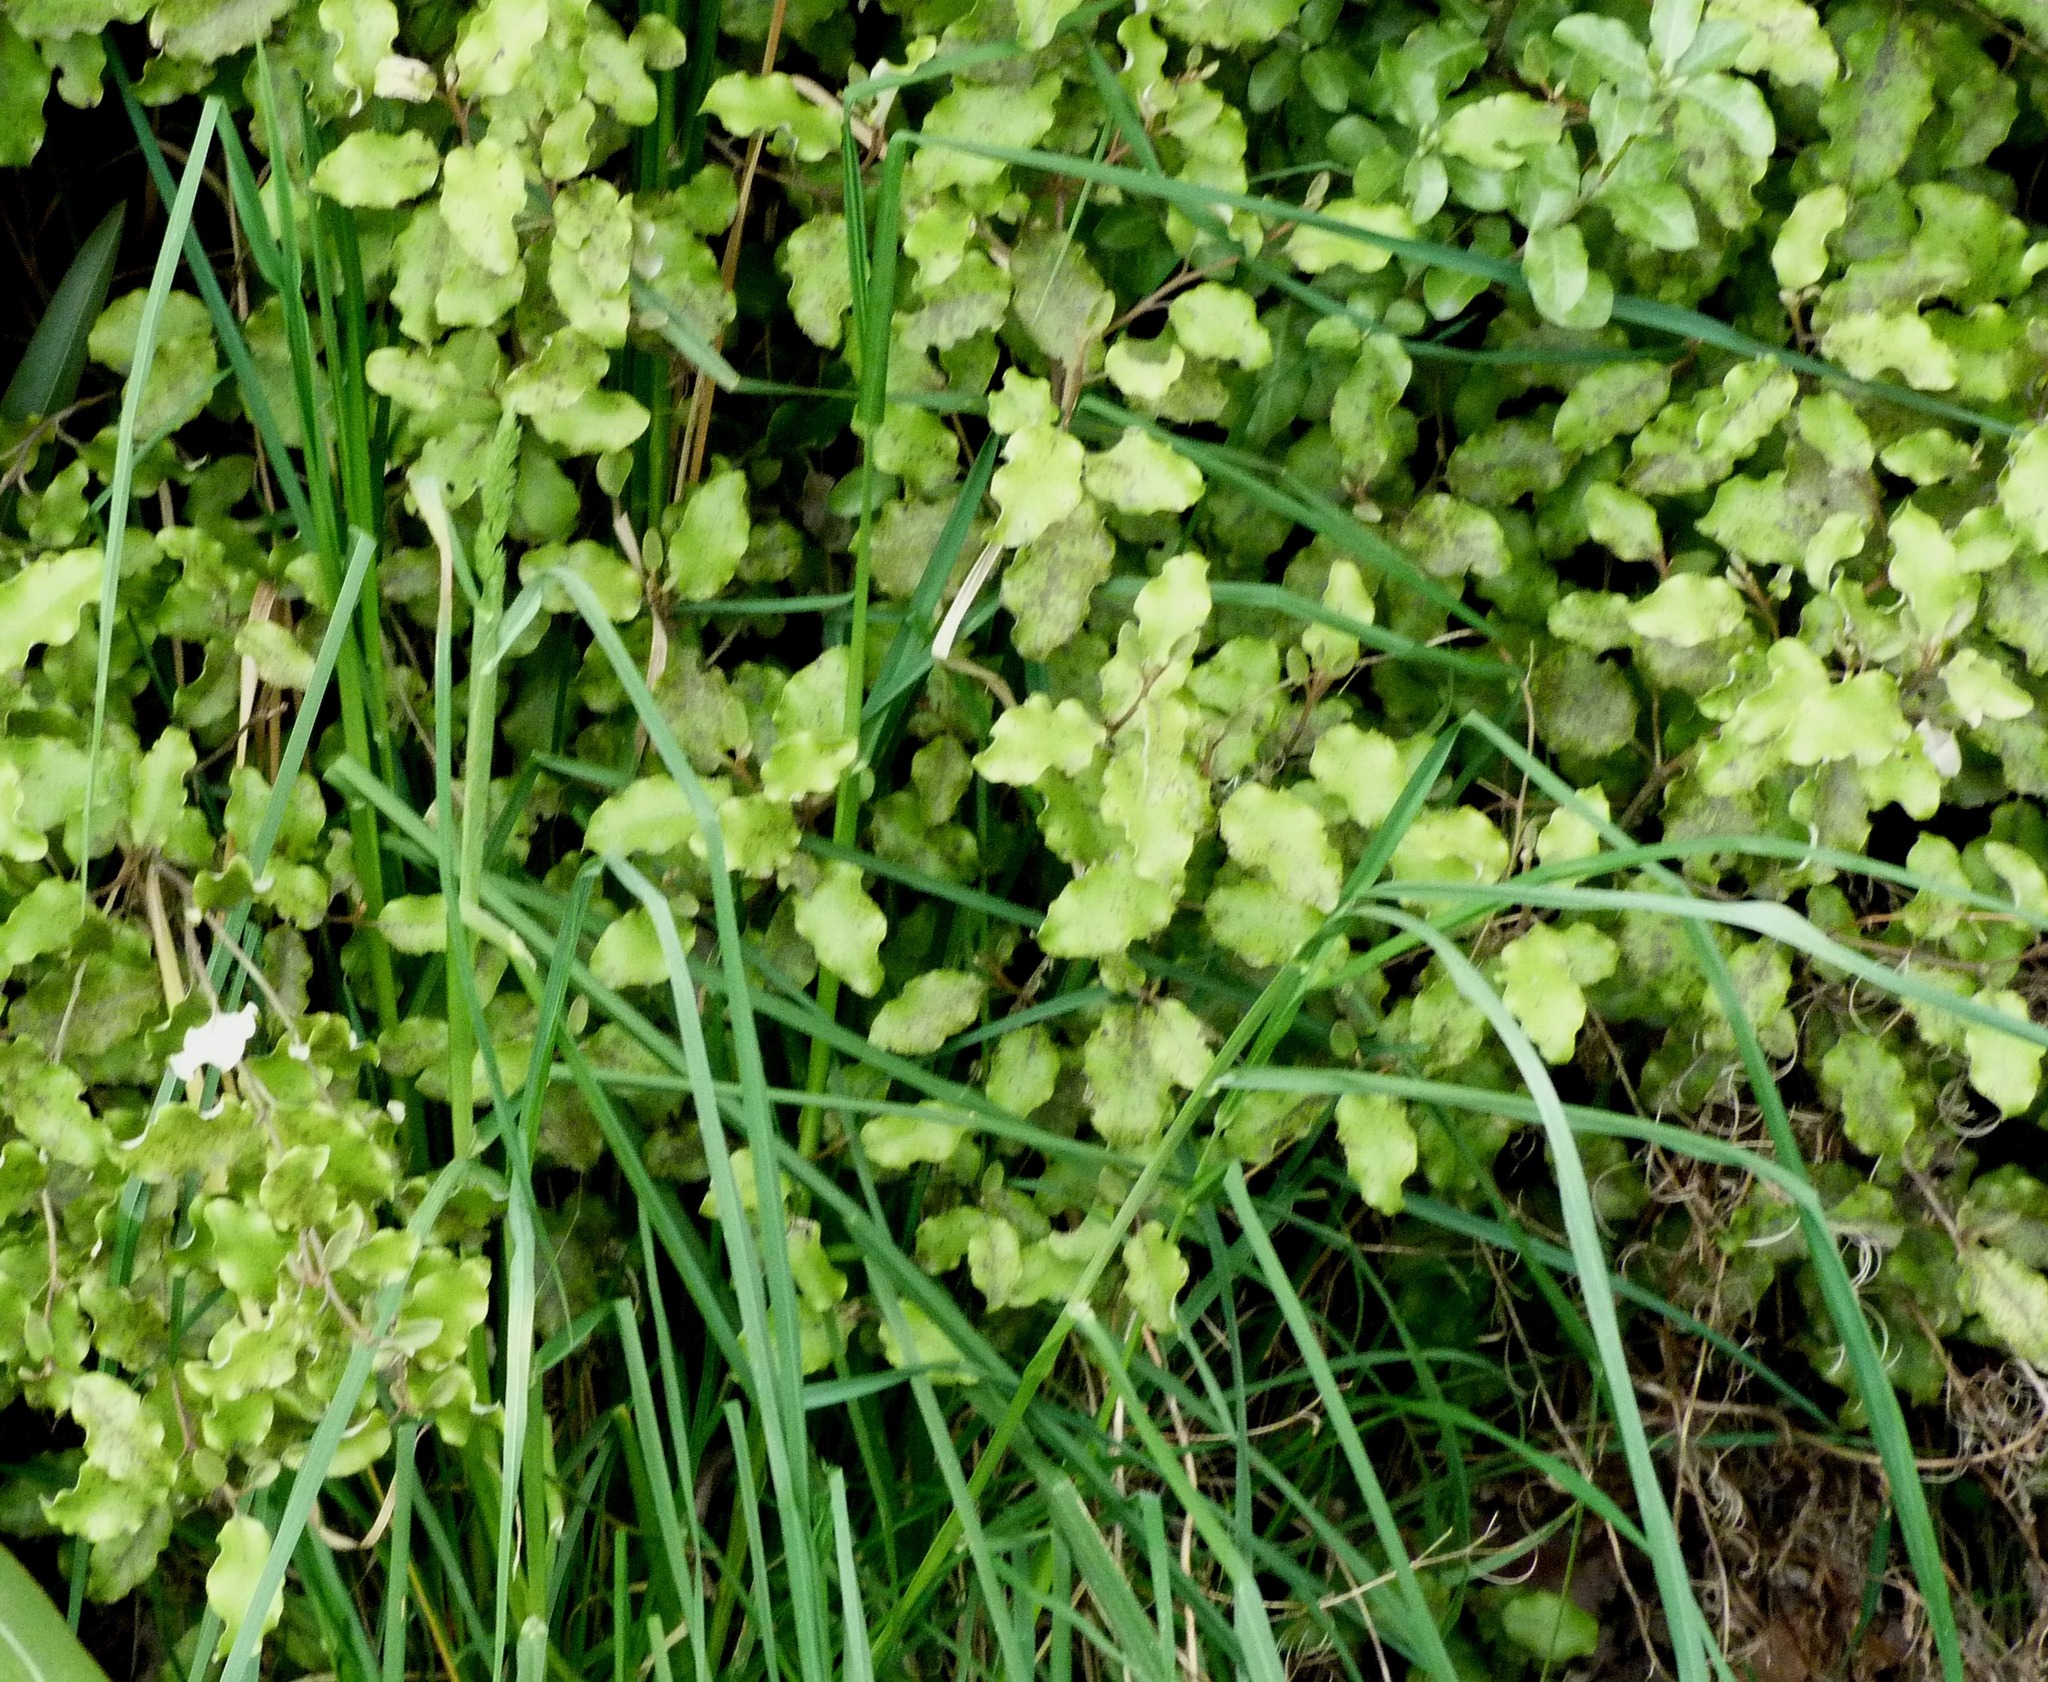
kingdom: Plantae
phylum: Tracheophyta
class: Liliopsida
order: Poales
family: Poaceae
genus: Dactylis
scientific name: Dactylis glomerata
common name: Orchardgrass
